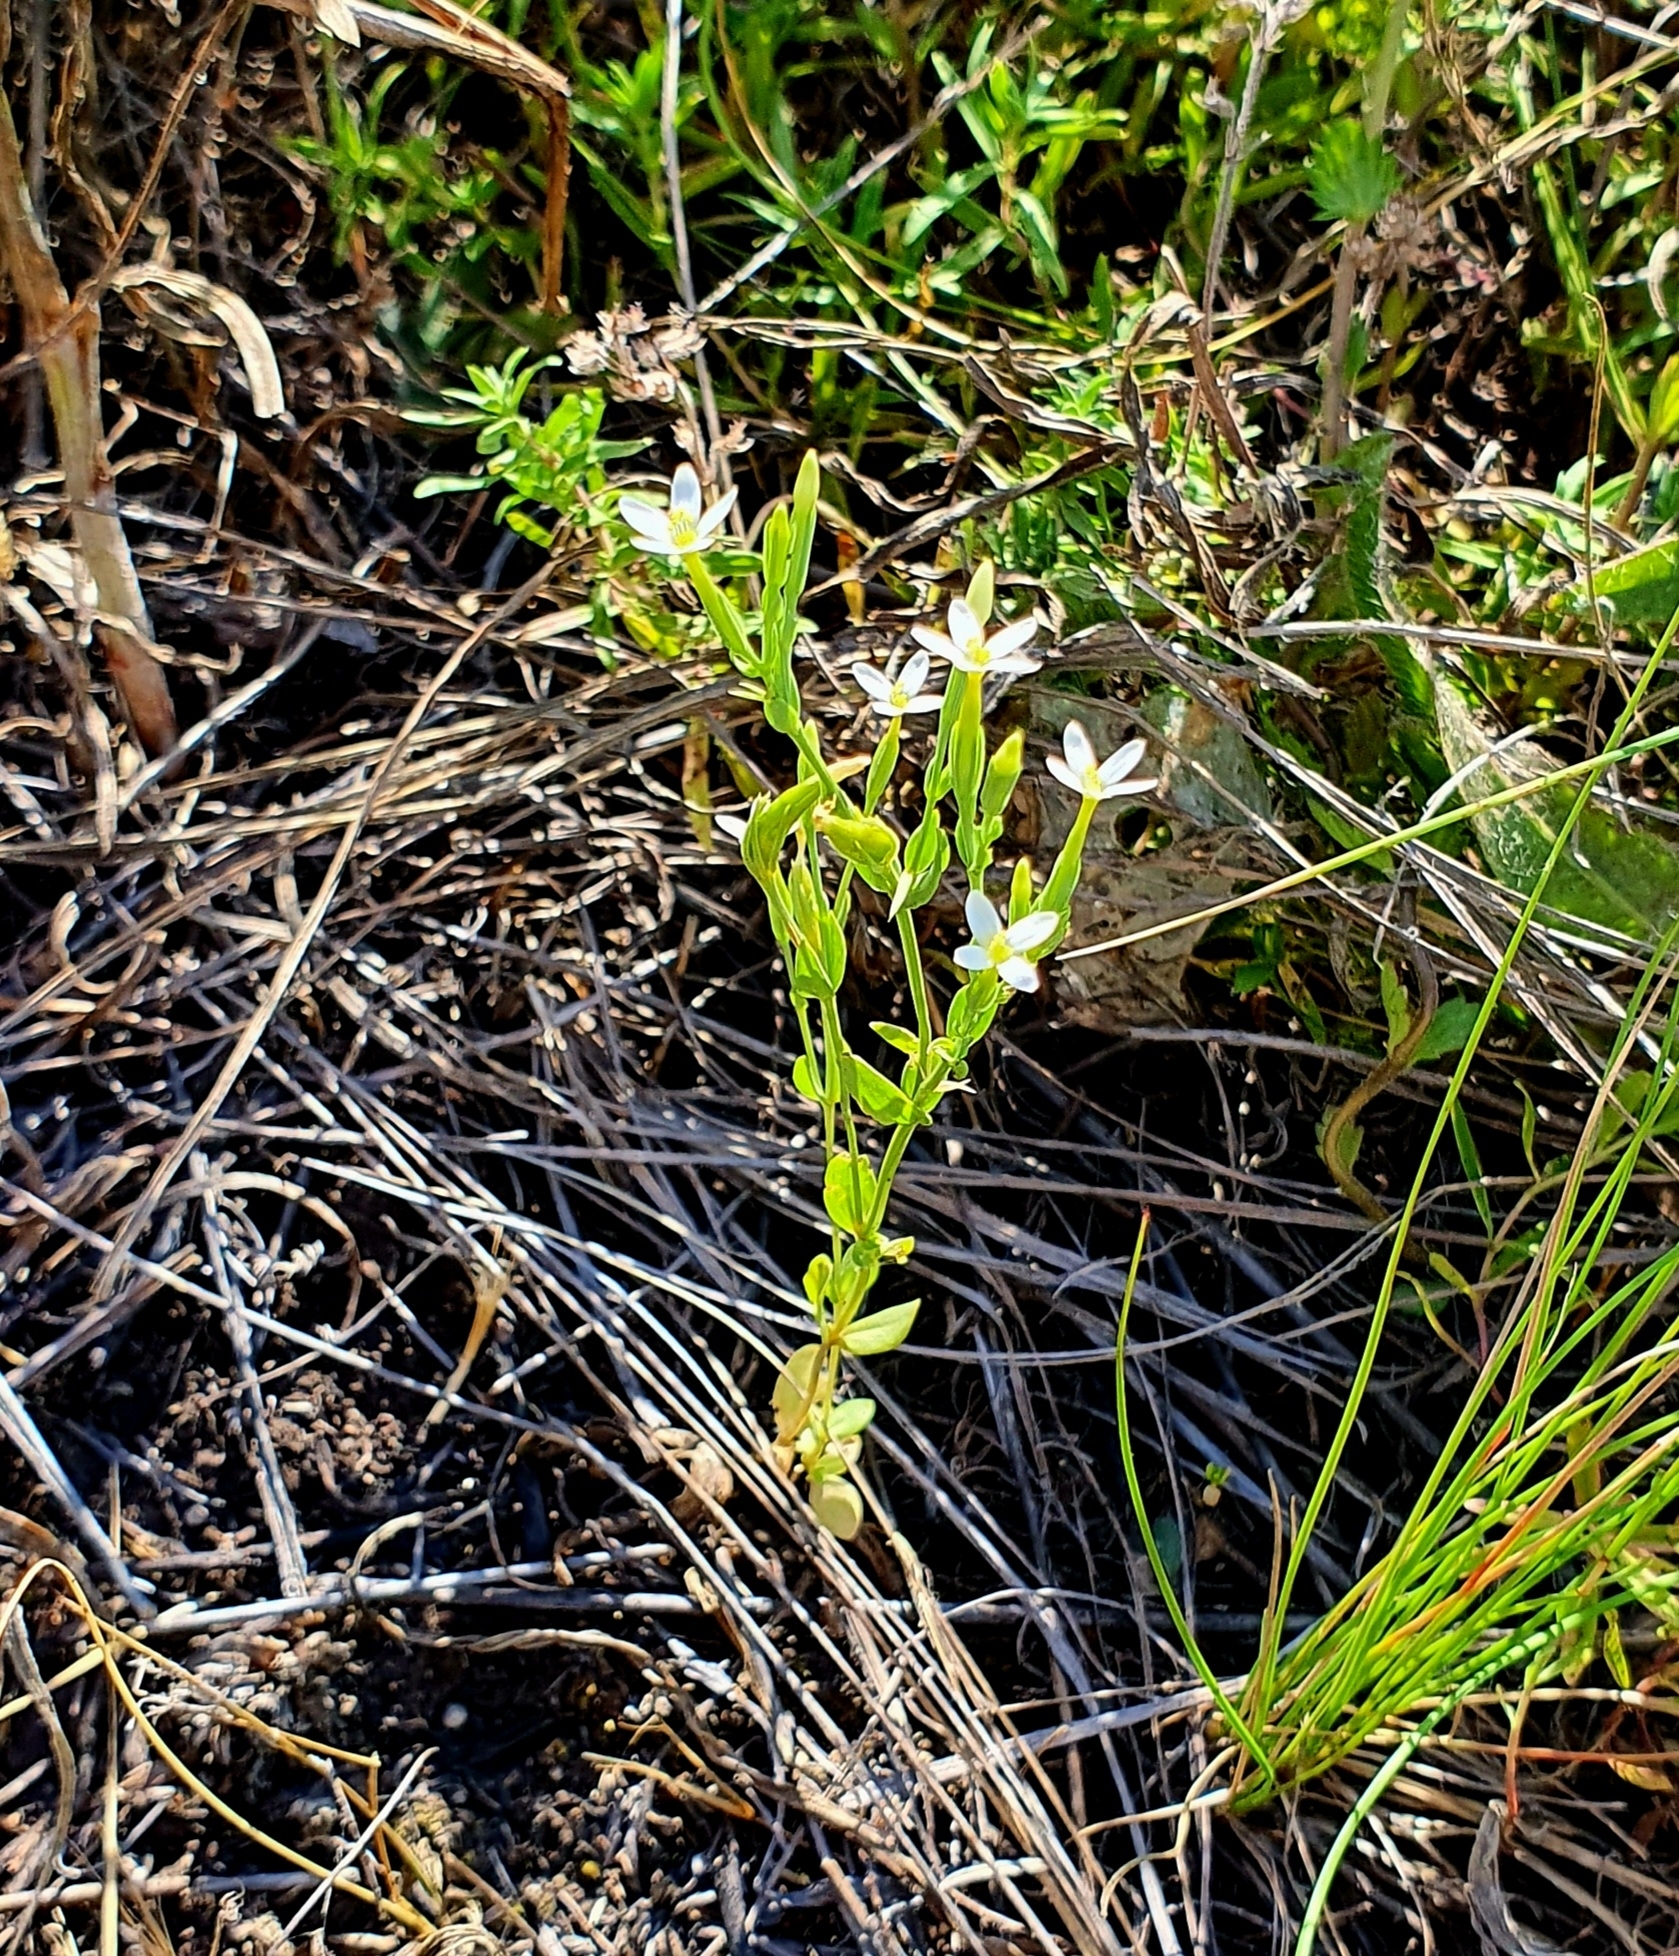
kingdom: Plantae
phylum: Tracheophyta
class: Magnoliopsida
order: Gentianales
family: Gentianaceae
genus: Centaurium
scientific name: Centaurium pulchellum
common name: Lesser centaury
